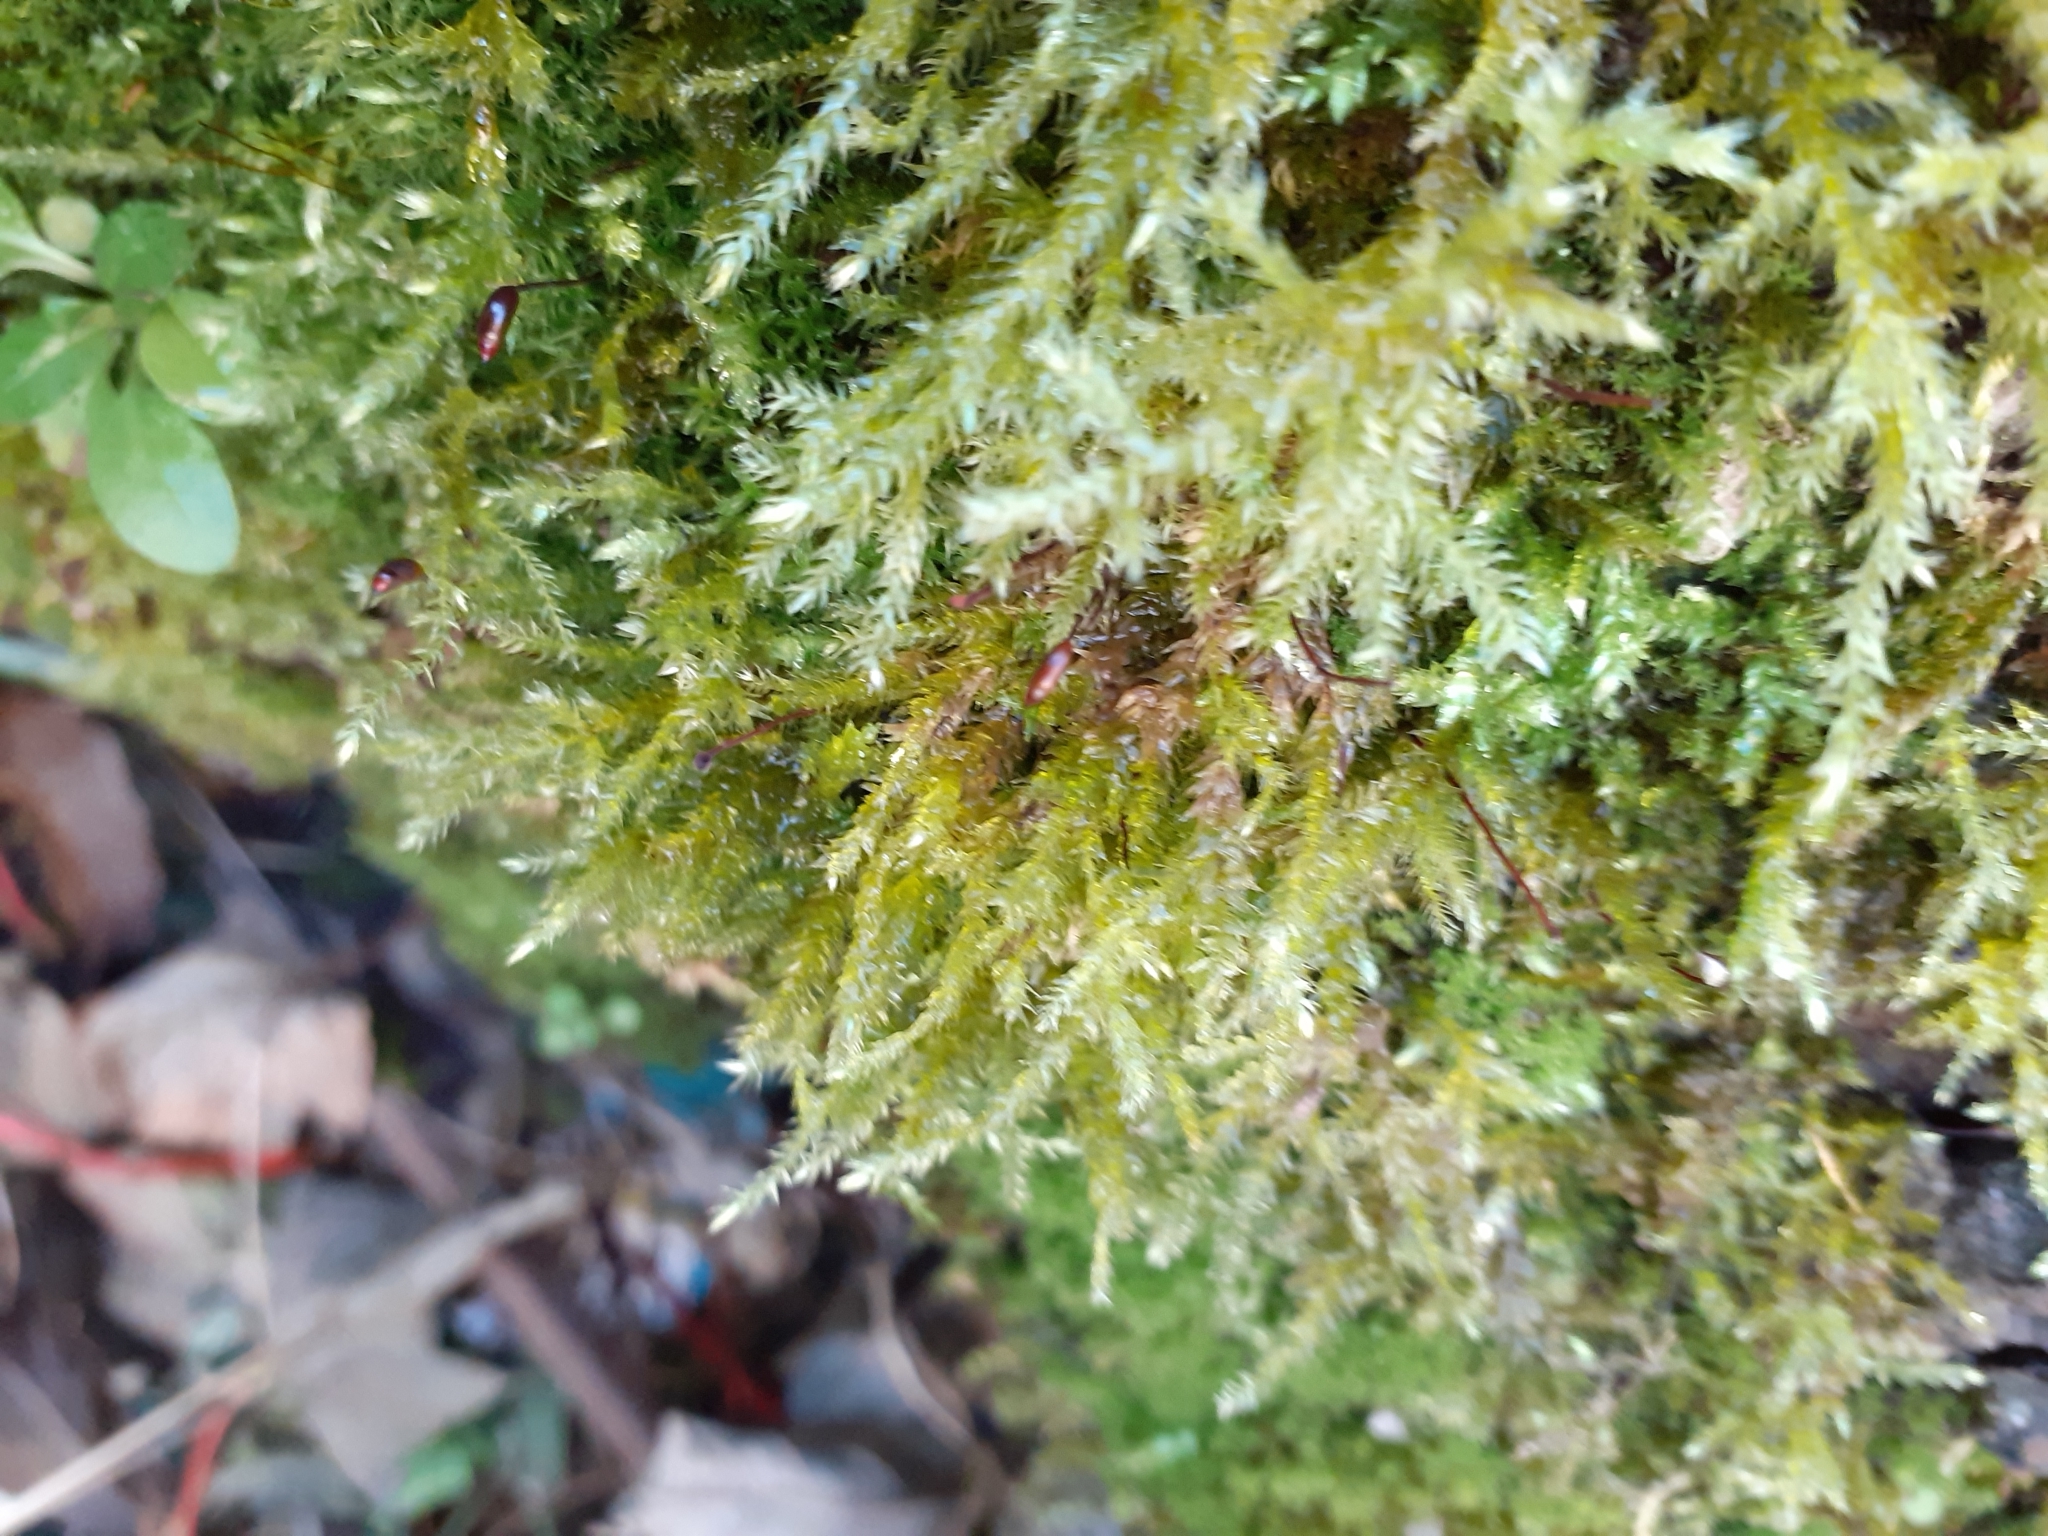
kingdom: Plantae
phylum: Bryophyta
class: Bryopsida
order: Hypnales
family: Brachytheciaceae
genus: Brachythecium
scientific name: Brachythecium rutabulum
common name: Rough-stalked feather-moss
